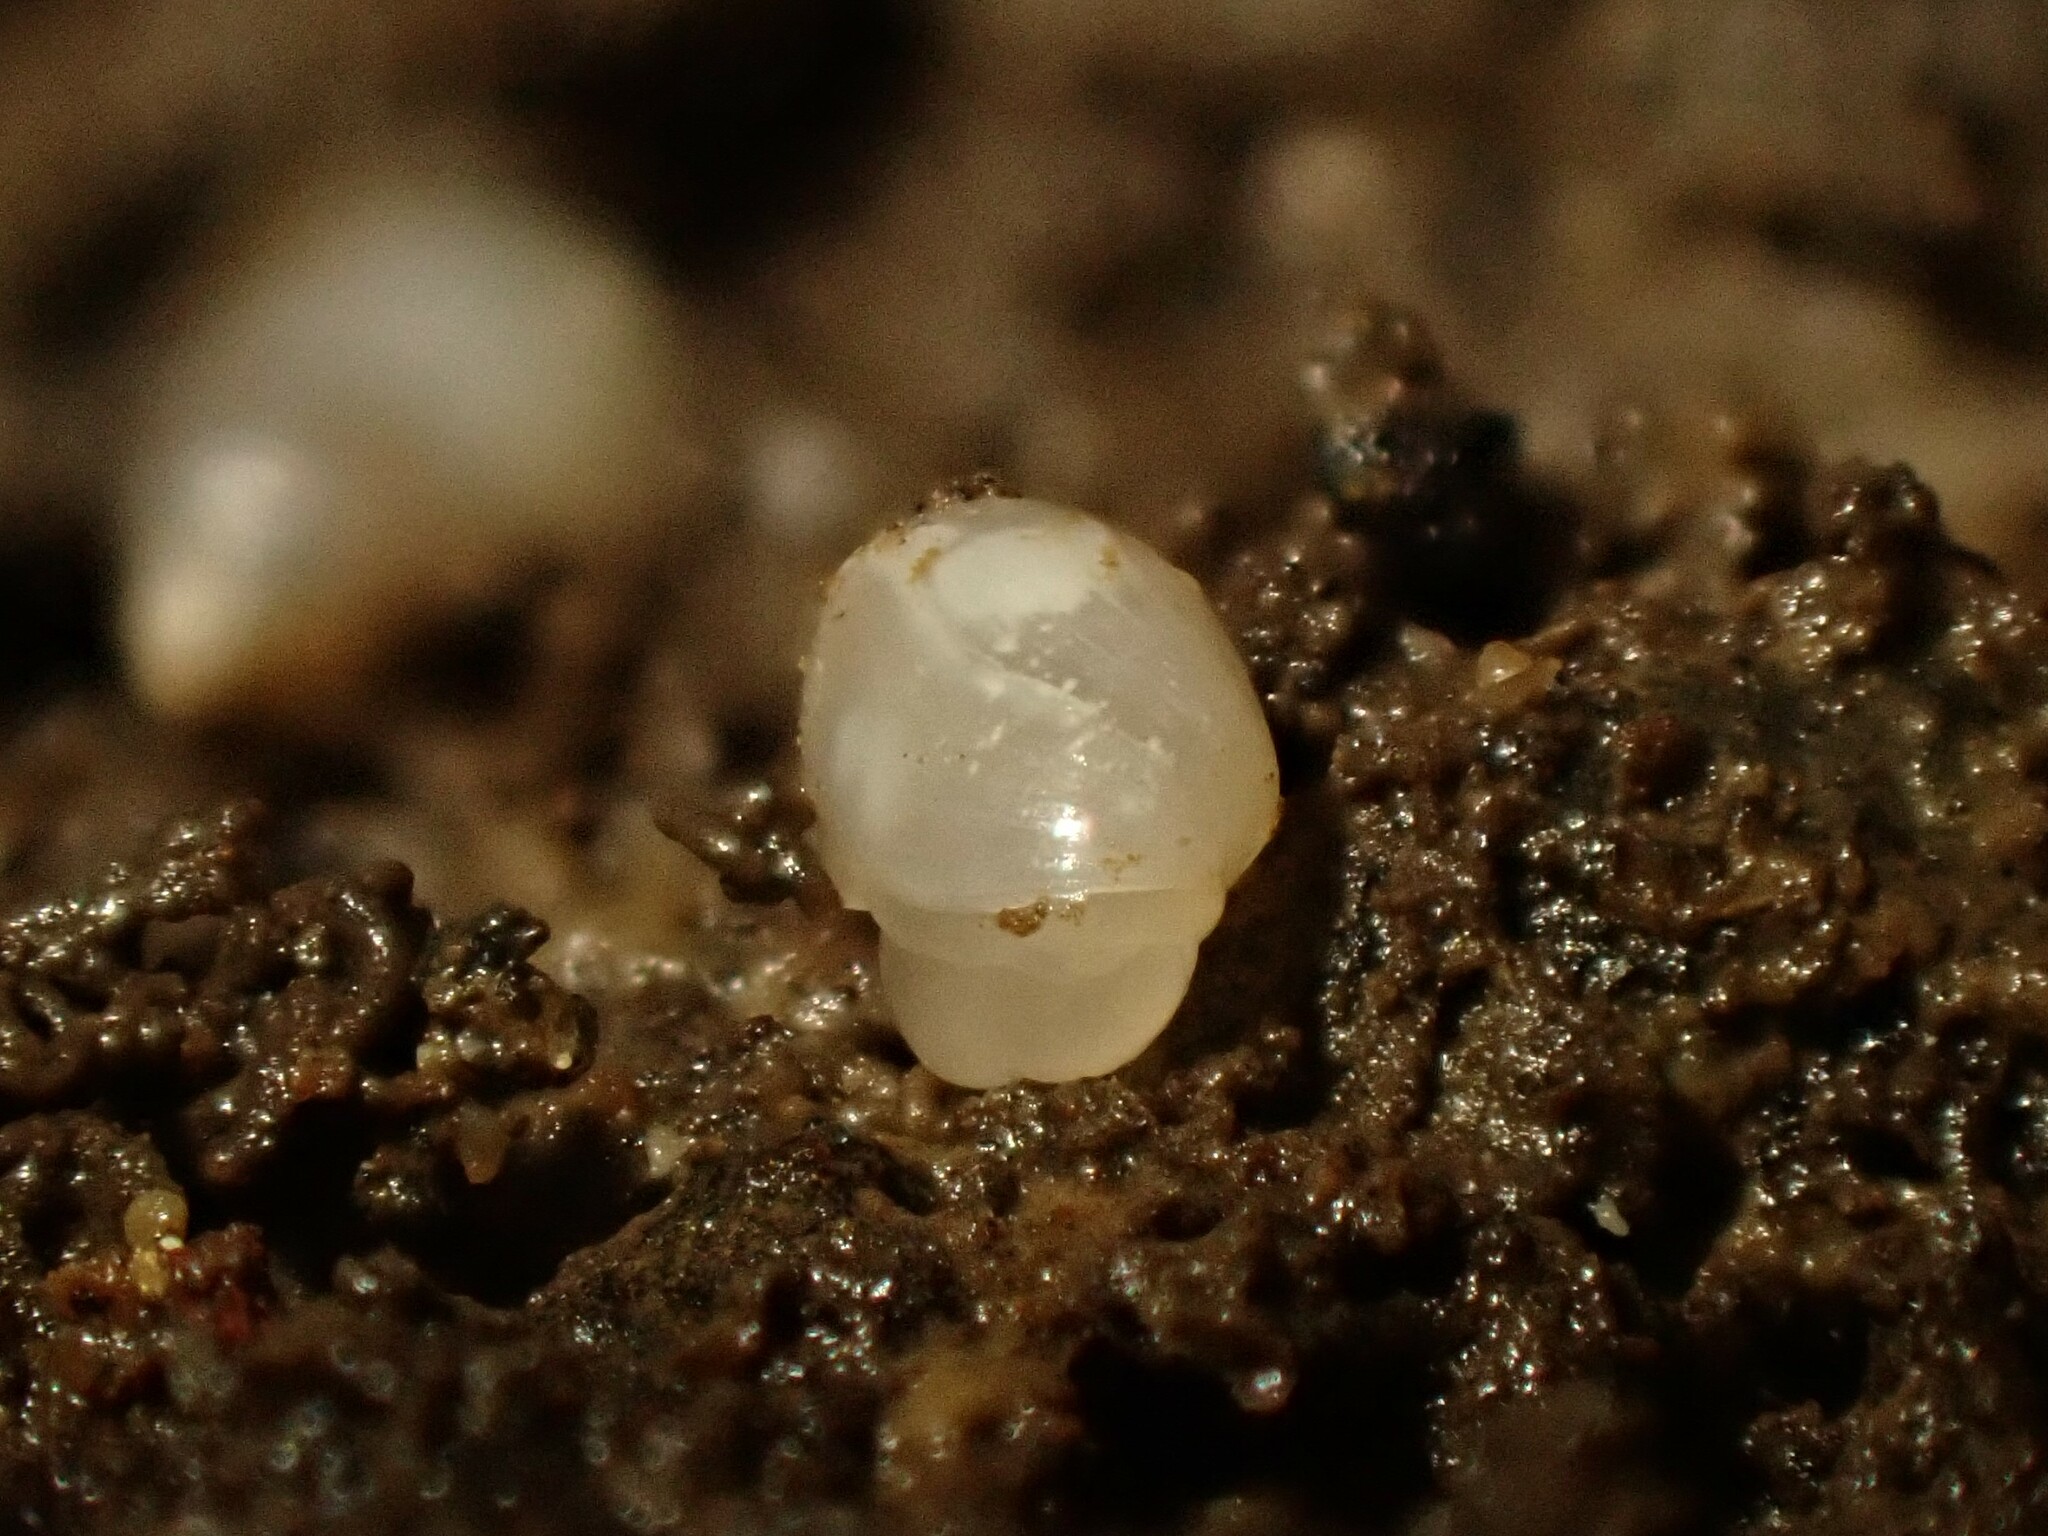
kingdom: Animalia
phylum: Mollusca
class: Gastropoda
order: Ellobiida
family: Ellobiidae
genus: Microtralia
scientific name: Microtralia insularis
